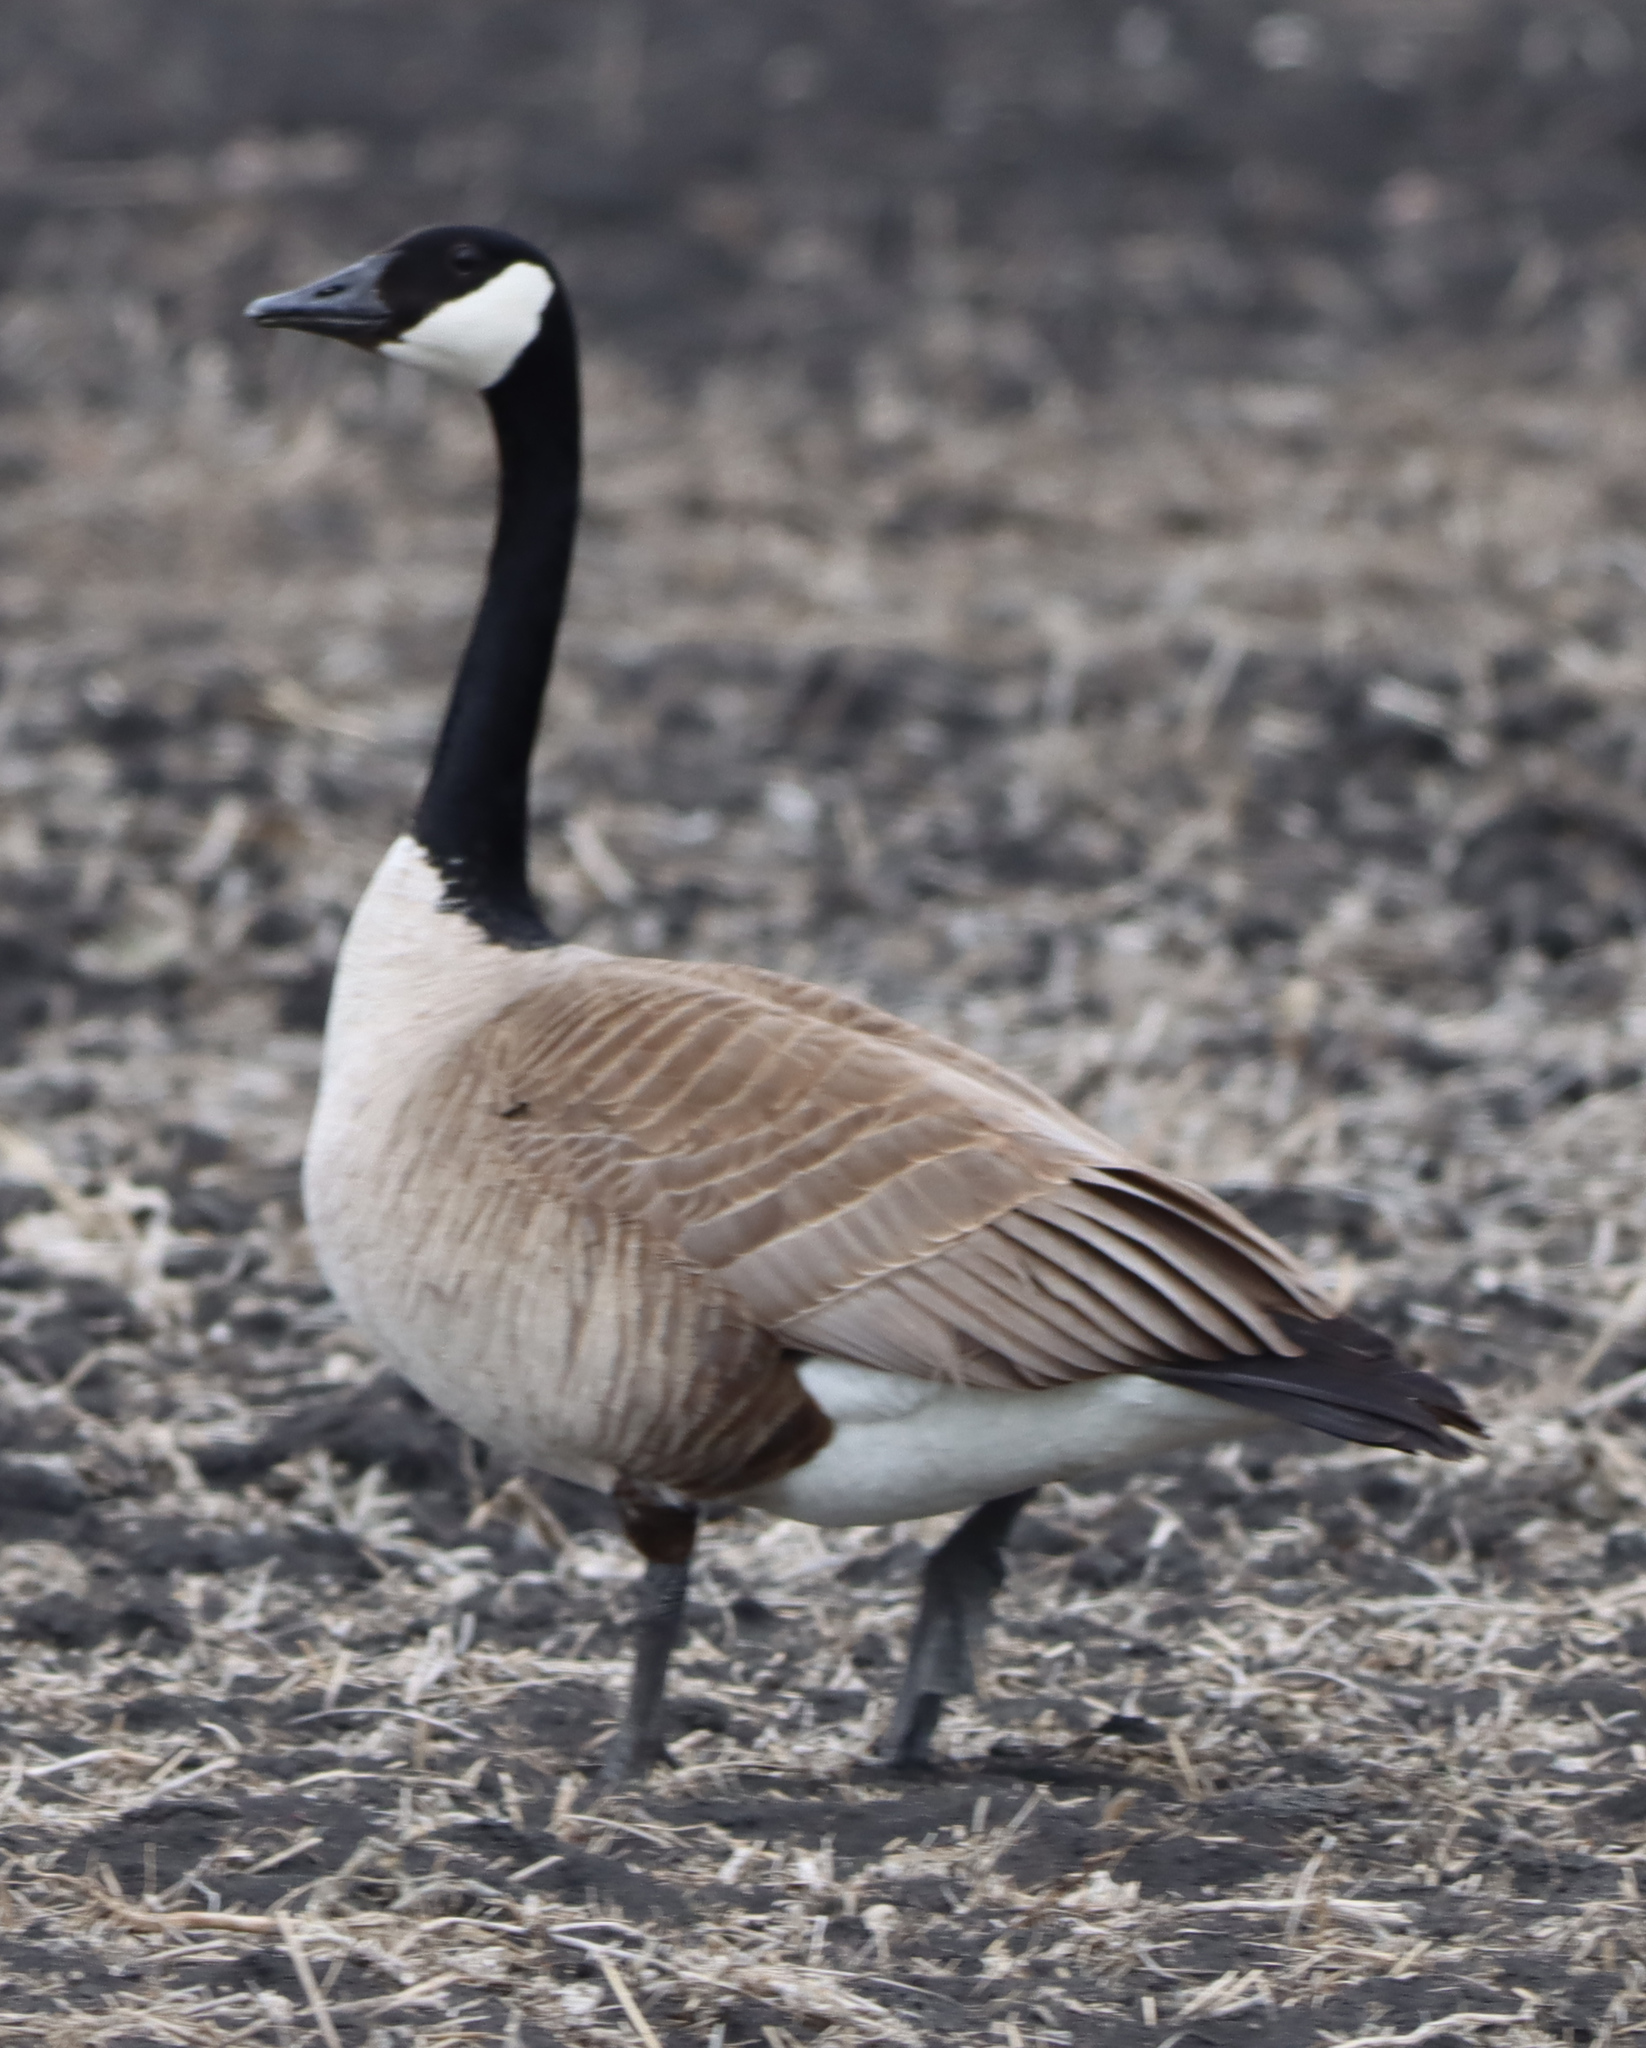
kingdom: Animalia
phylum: Chordata
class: Aves
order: Anseriformes
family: Anatidae
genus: Branta
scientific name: Branta canadensis
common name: Canada goose
